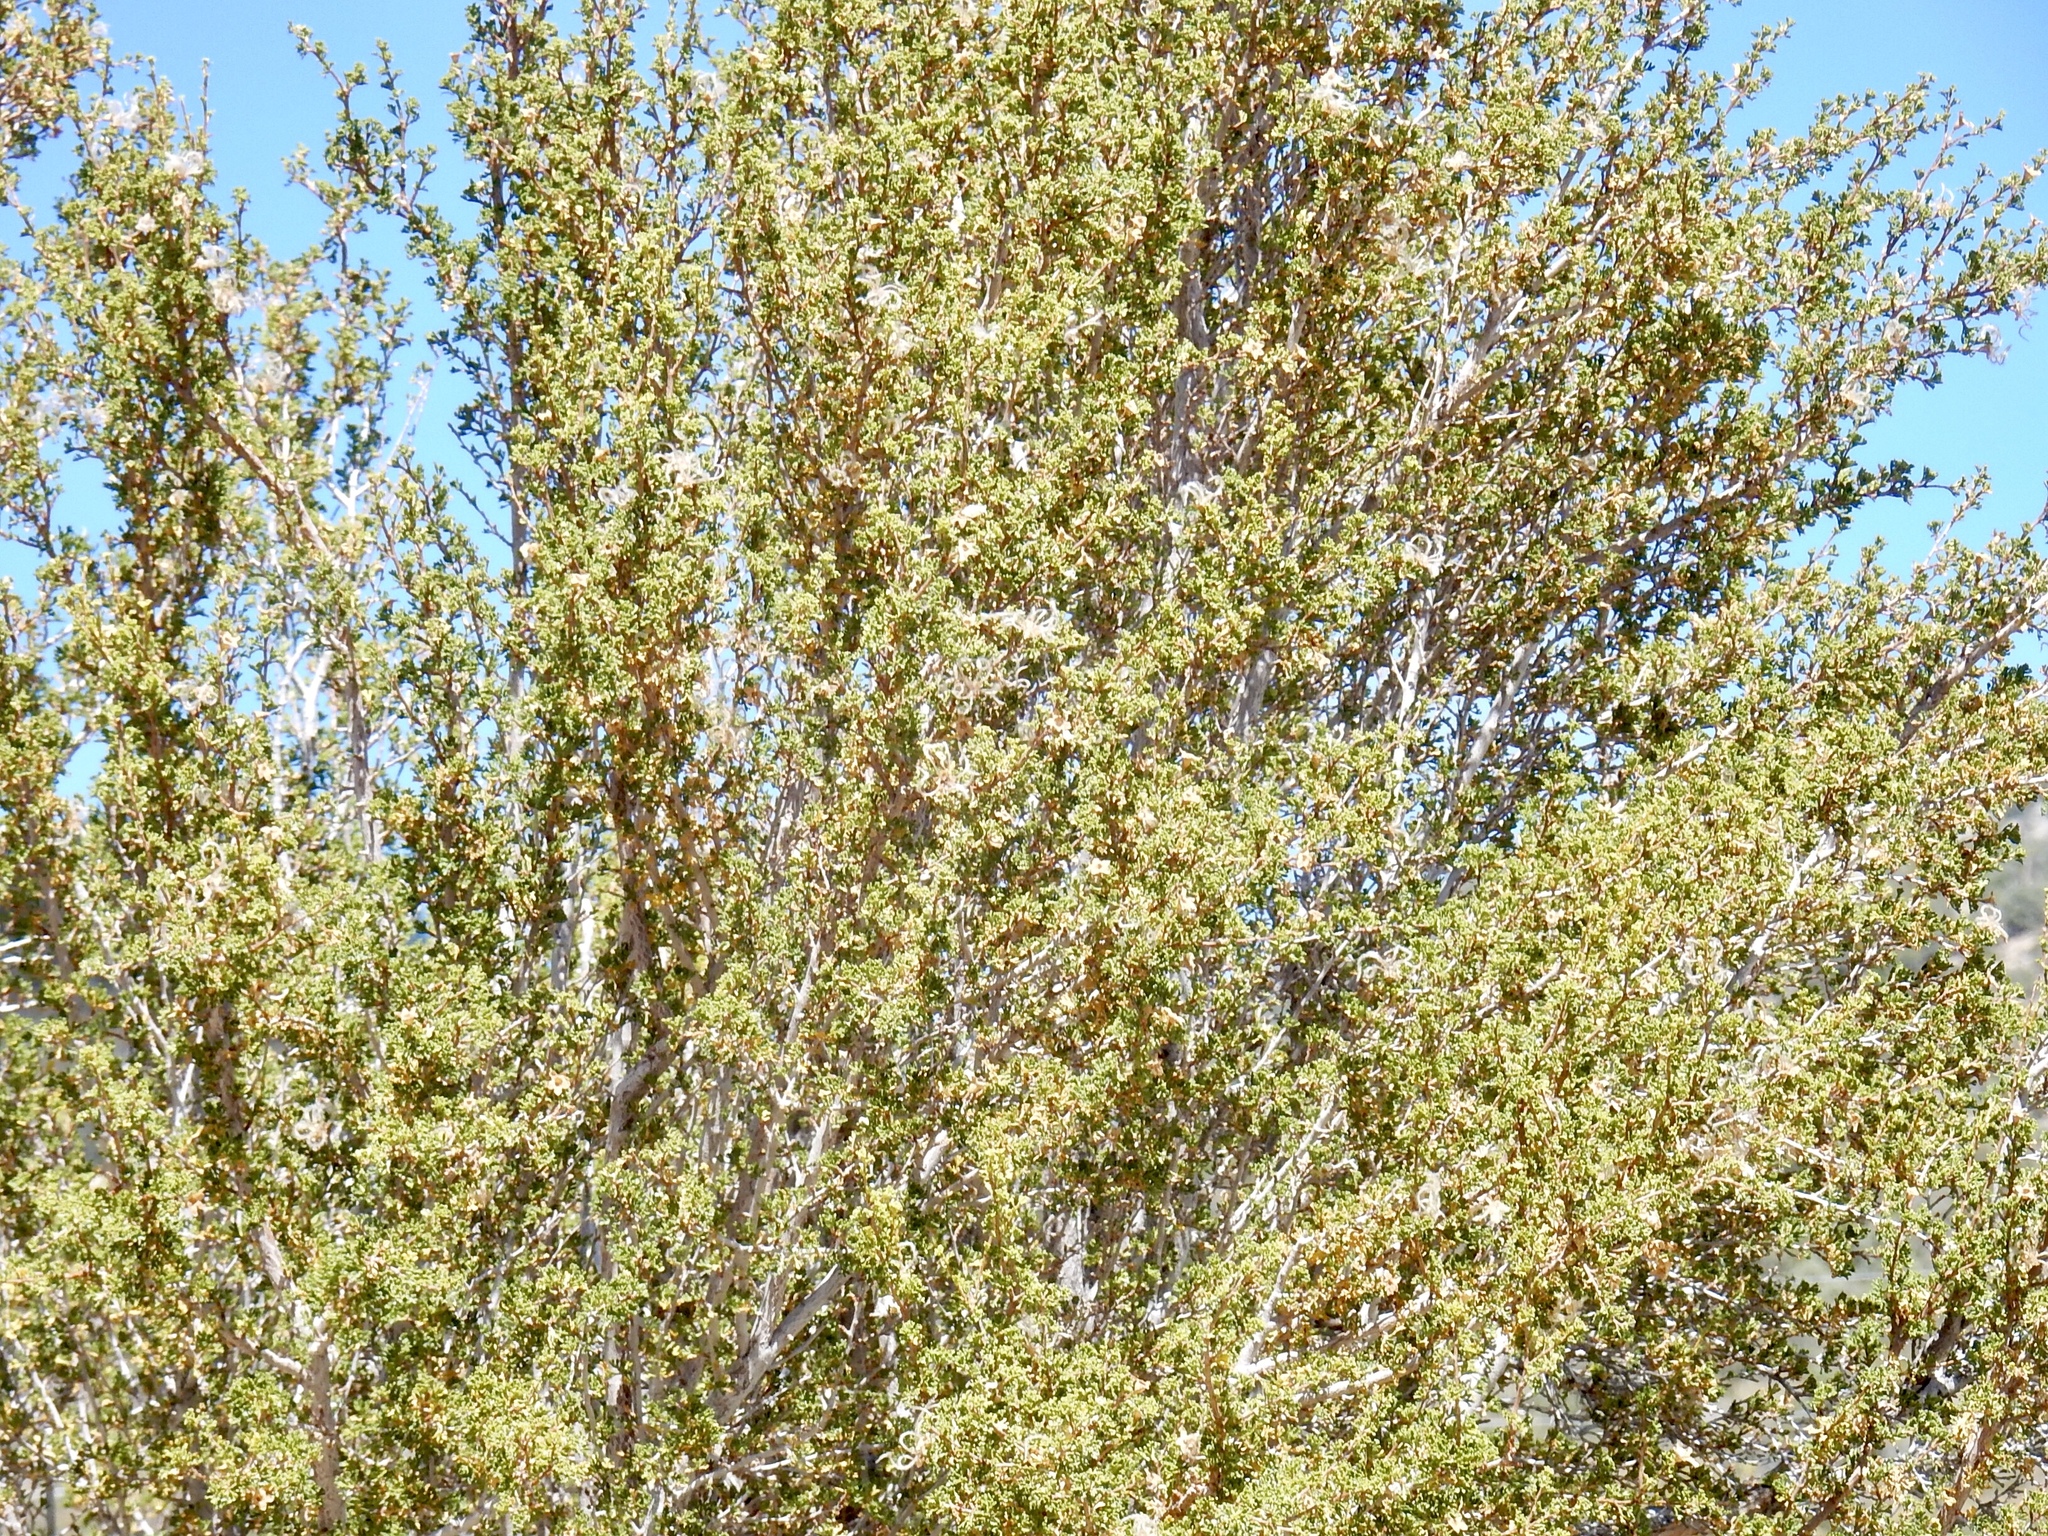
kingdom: Plantae
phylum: Tracheophyta
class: Magnoliopsida
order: Rosales
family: Rosaceae
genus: Purshia
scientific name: Purshia stansburiana
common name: Stansbury's cliffrose
